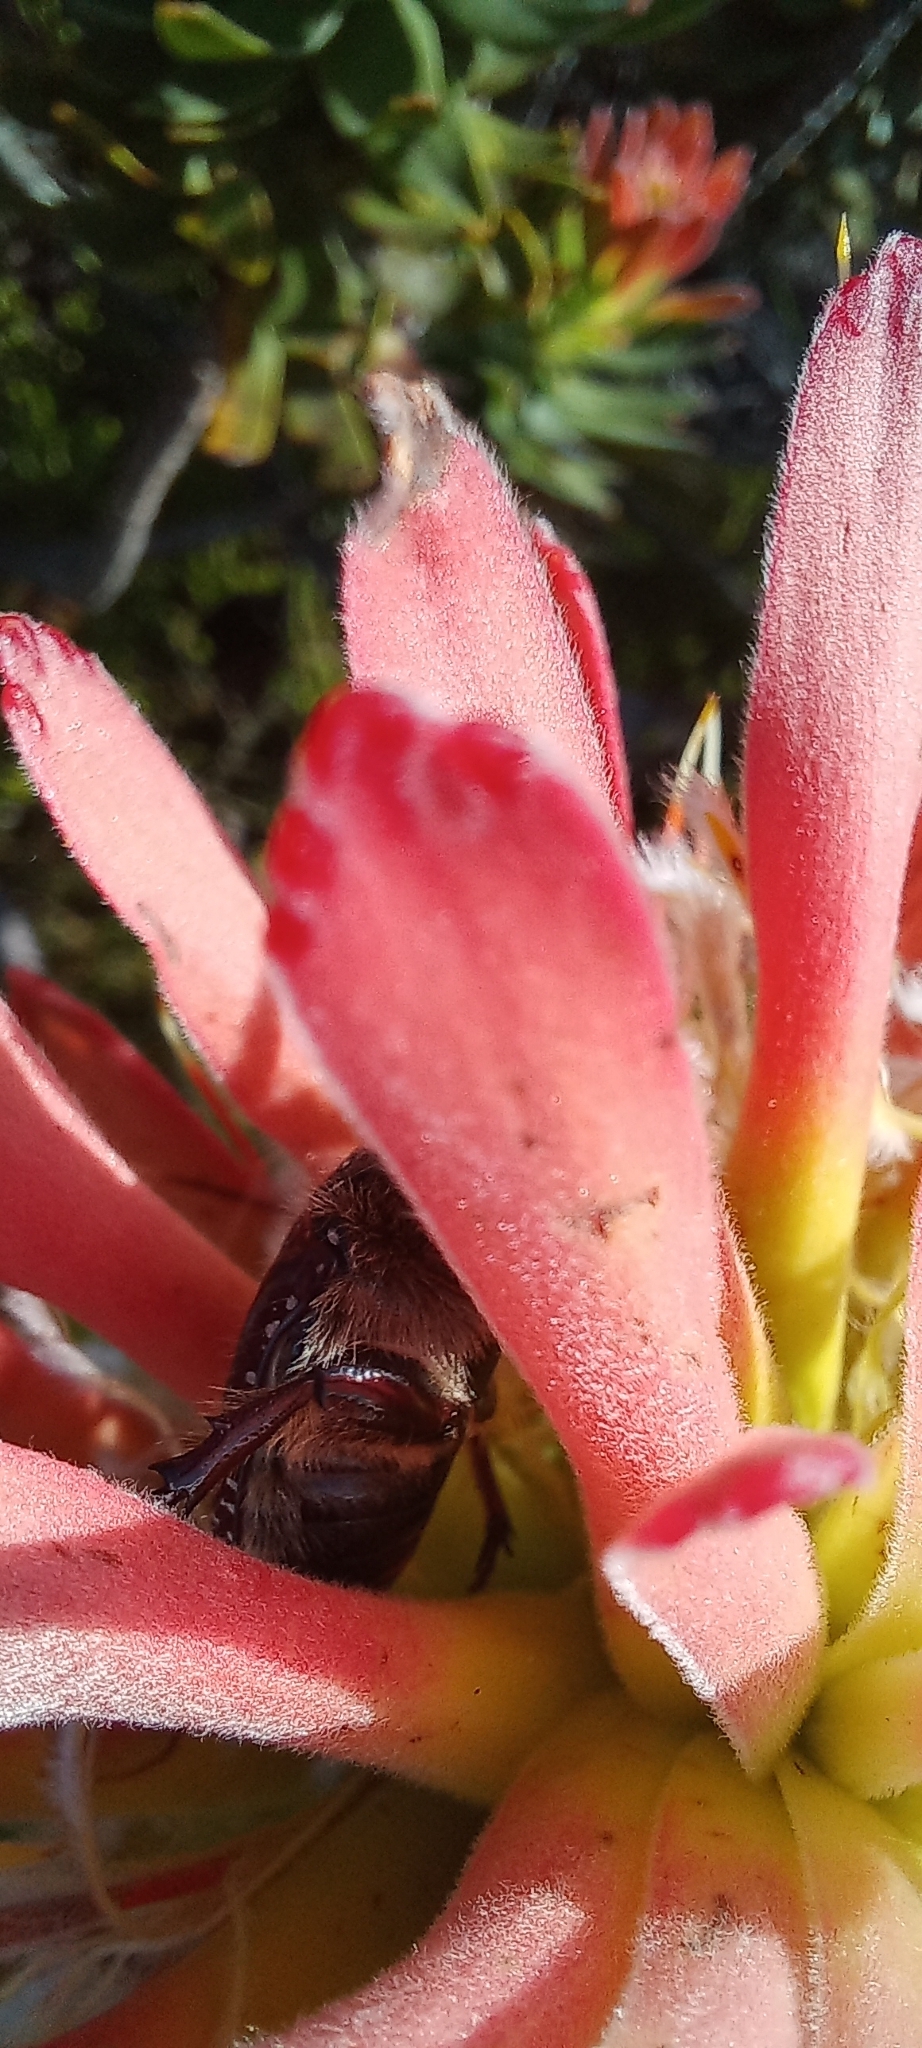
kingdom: Animalia
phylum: Arthropoda
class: Insecta
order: Coleoptera
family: Scarabaeidae
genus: Trichostetha
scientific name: Trichostetha signata
